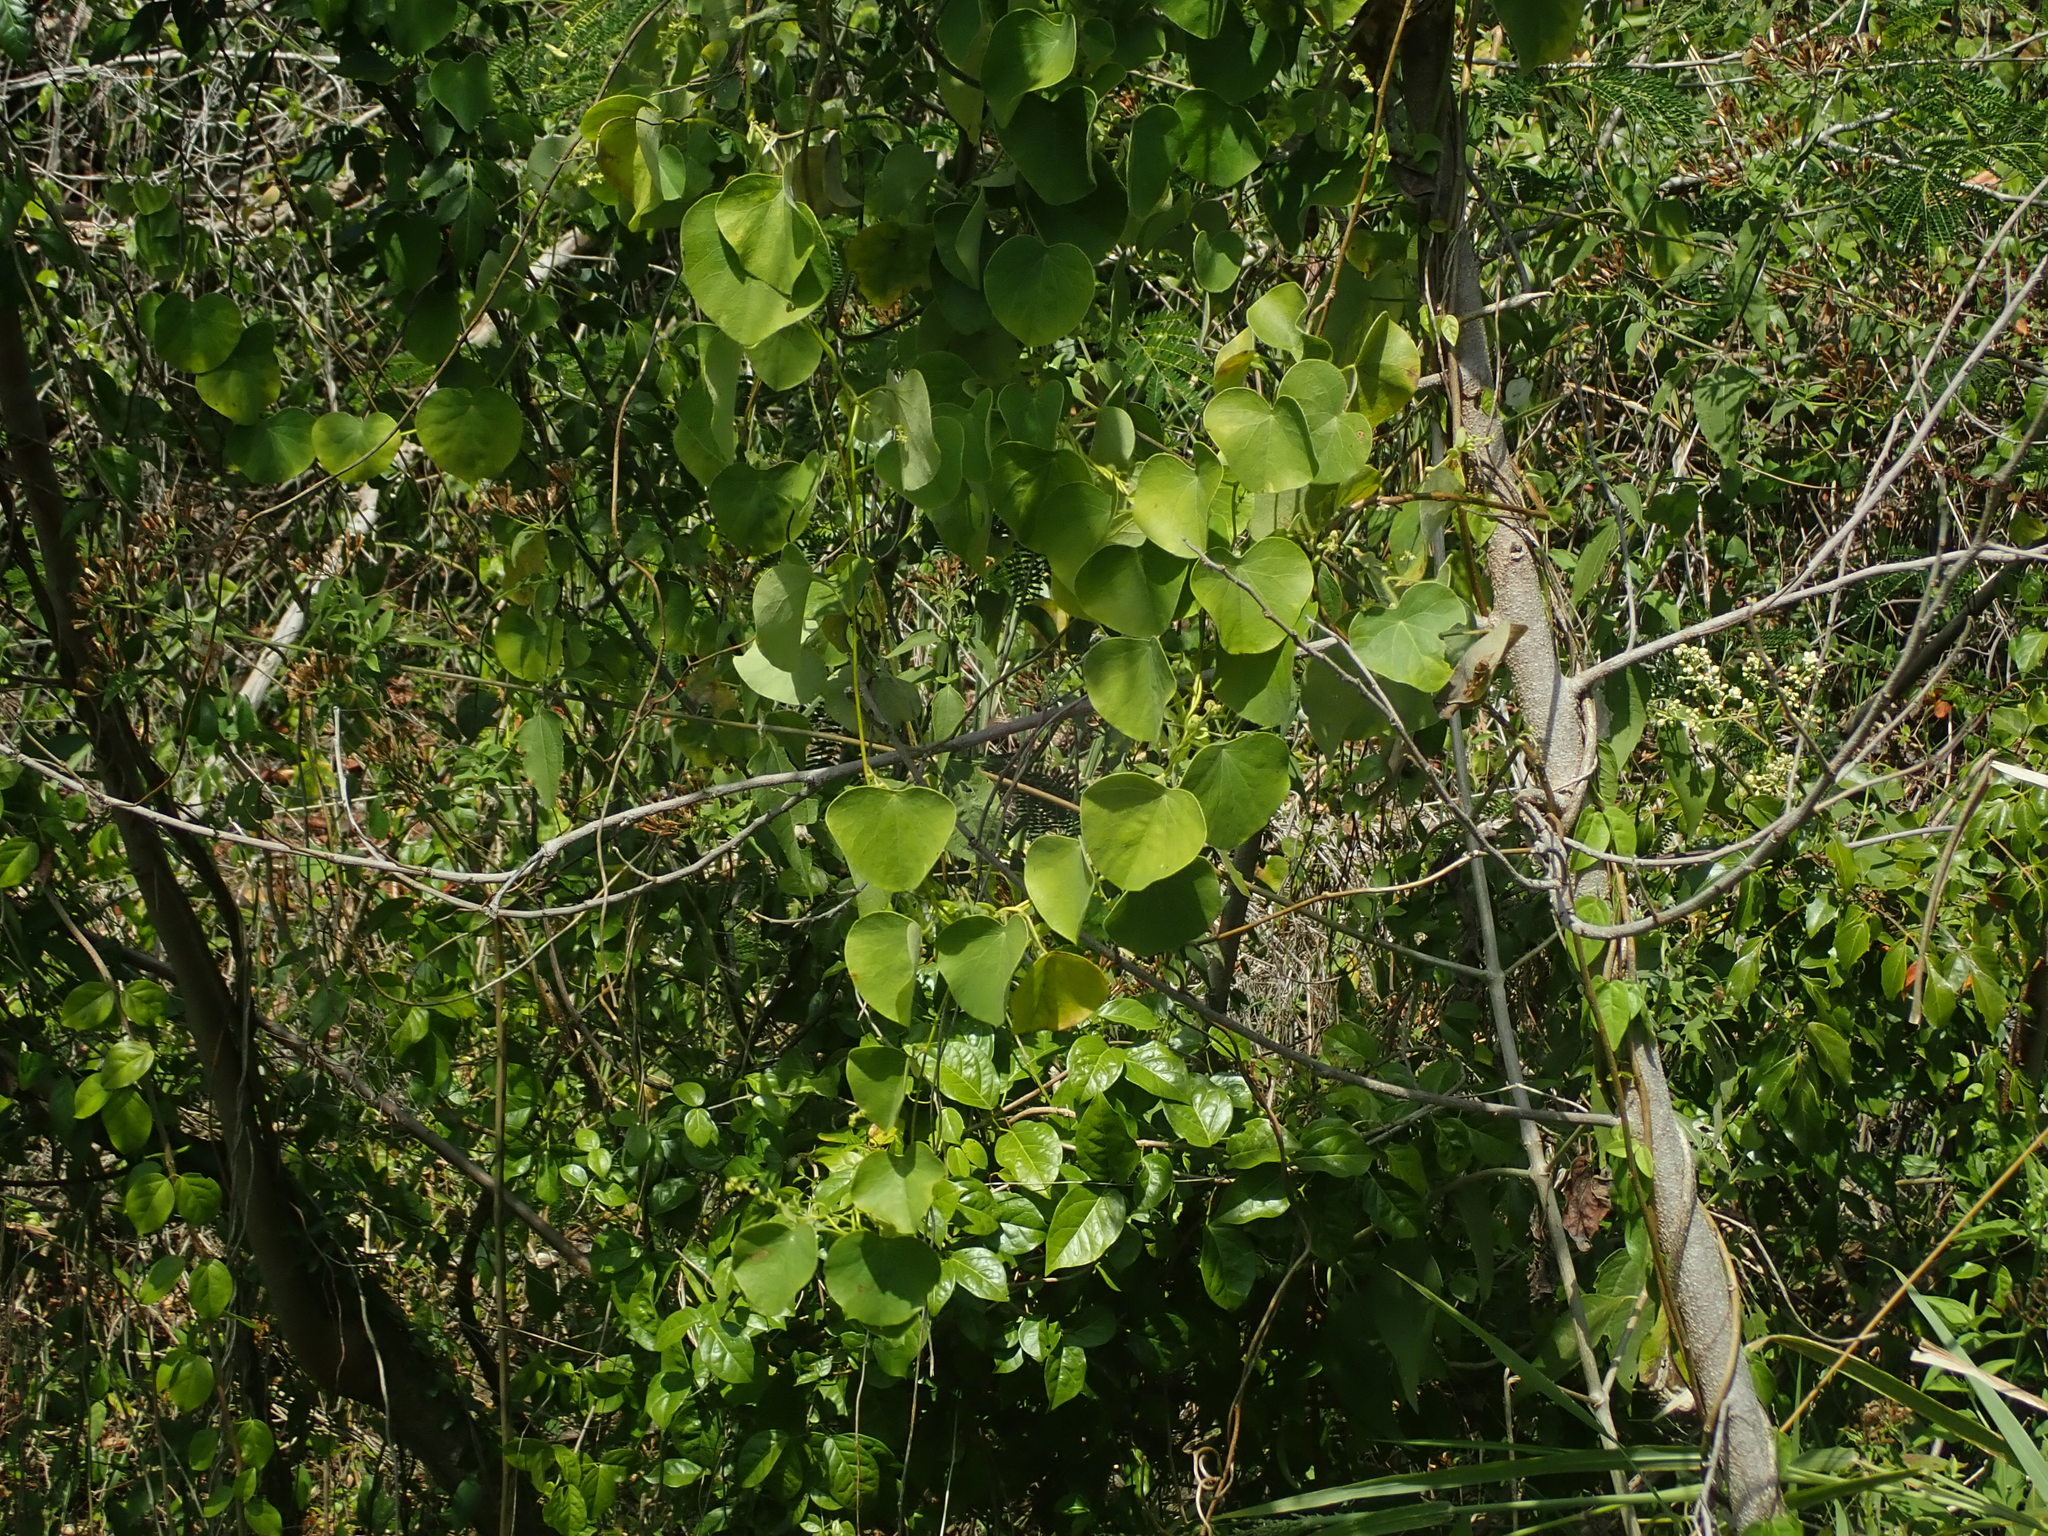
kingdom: Plantae
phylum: Tracheophyta
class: Magnoliopsida
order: Ranunculales
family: Menispermaceae
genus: Cissampelos
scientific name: Cissampelos pareira
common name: Velvetleaf
